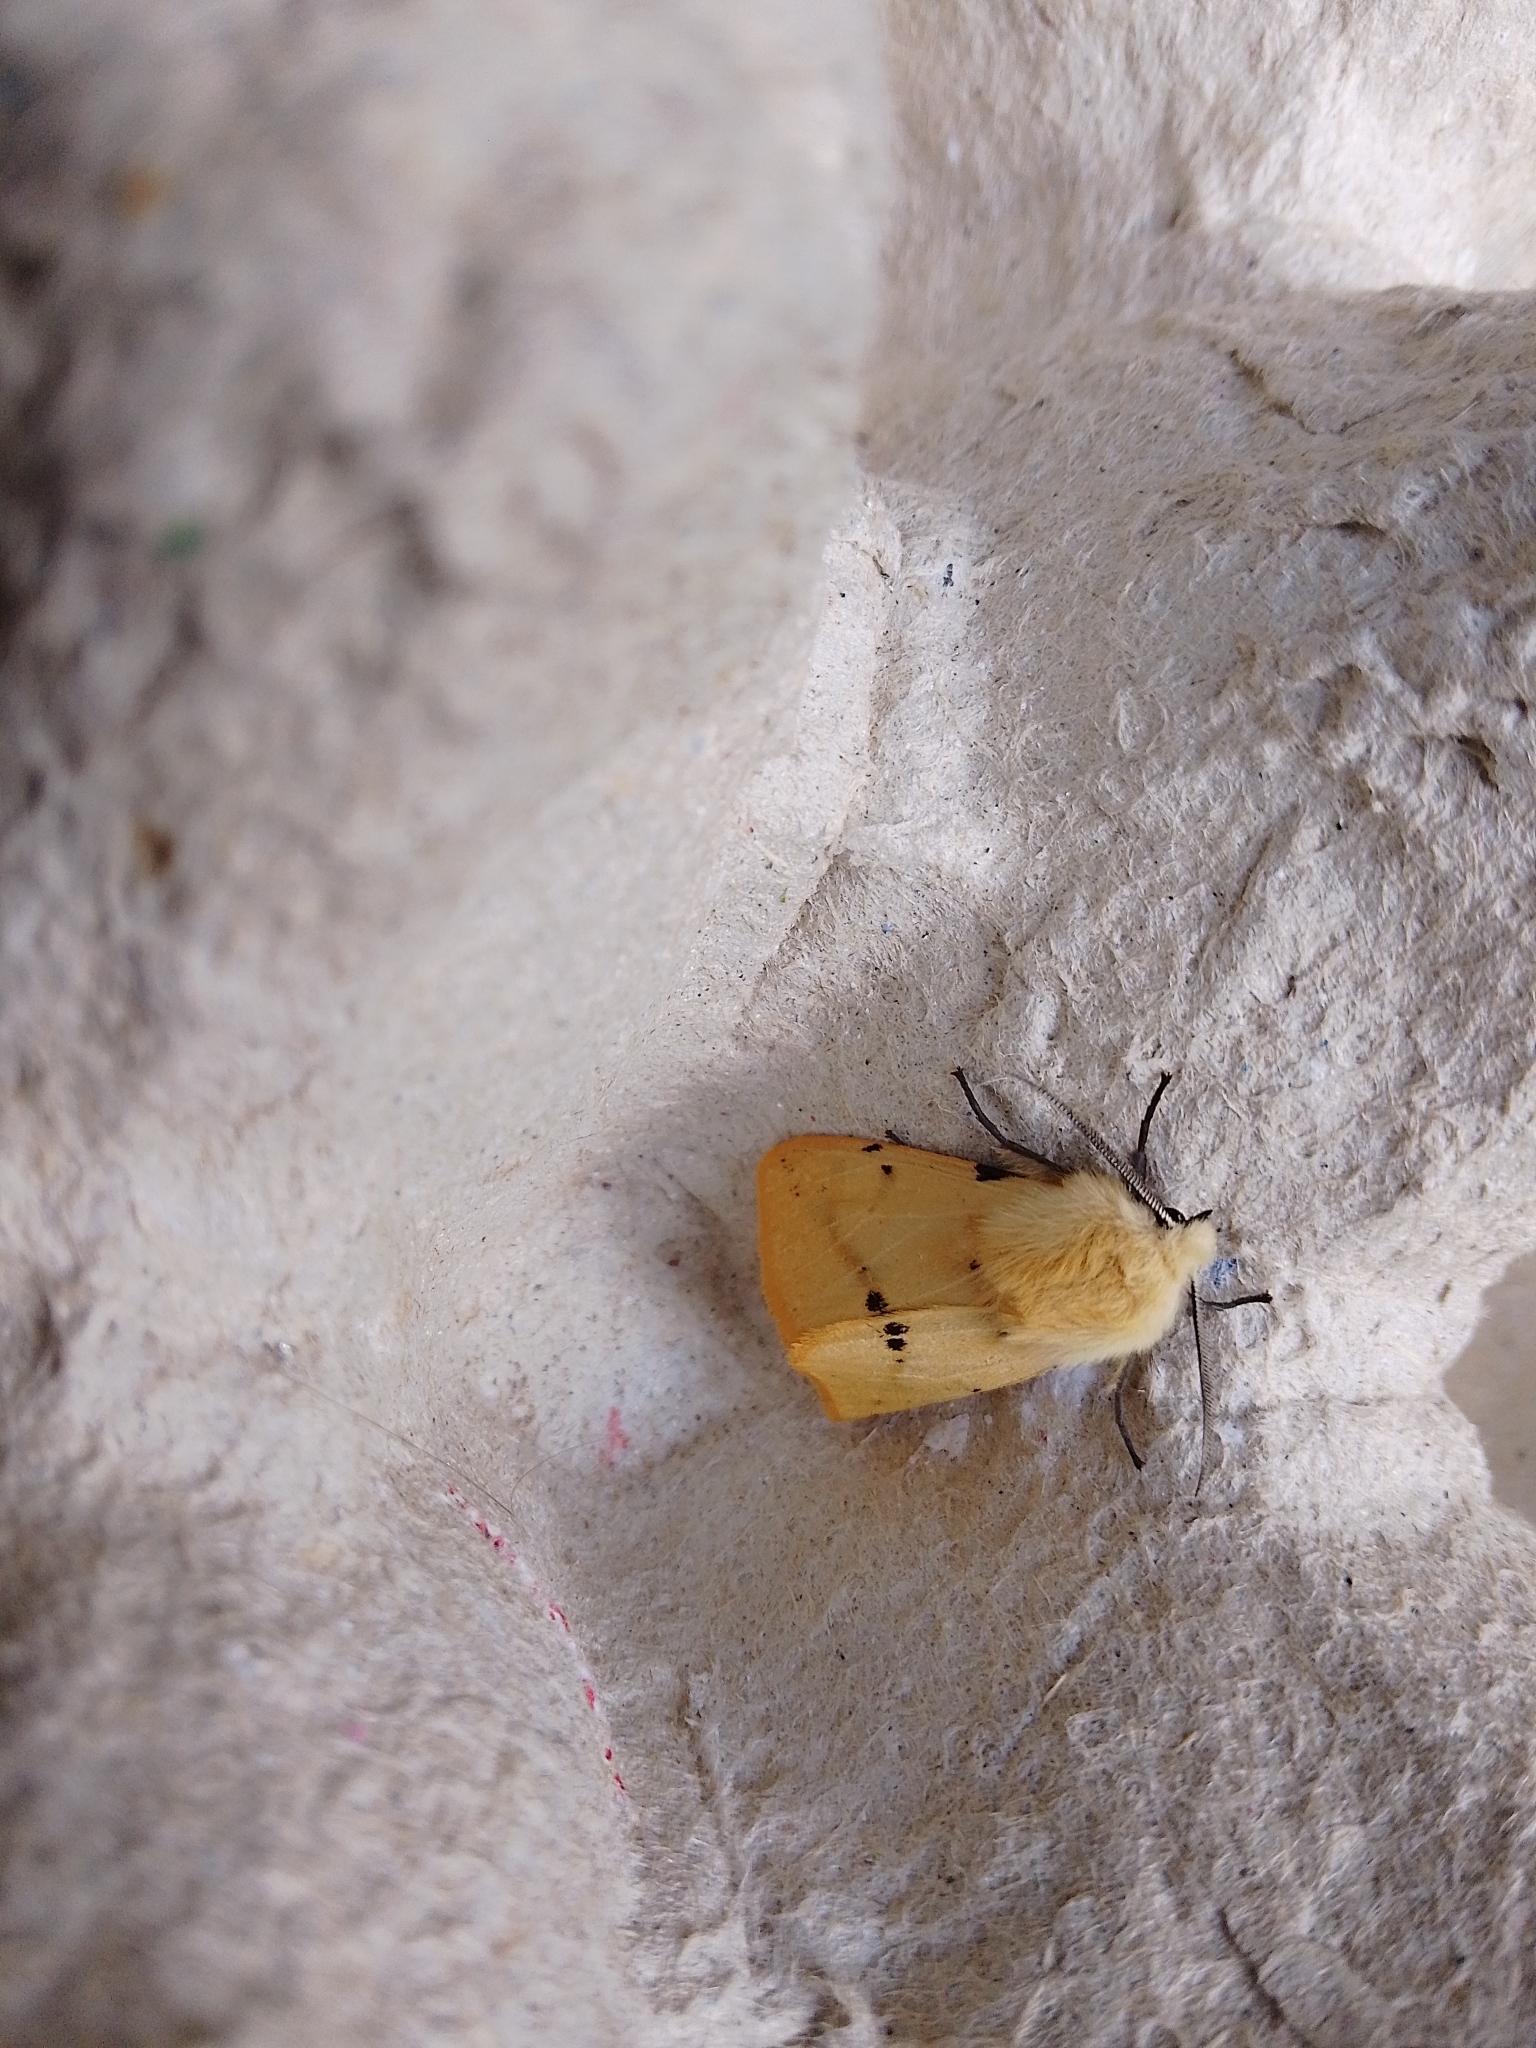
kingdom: Animalia
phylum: Arthropoda
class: Insecta
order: Lepidoptera
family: Erebidae
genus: Spilarctia
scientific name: Spilarctia lutea
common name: Buff ermine
